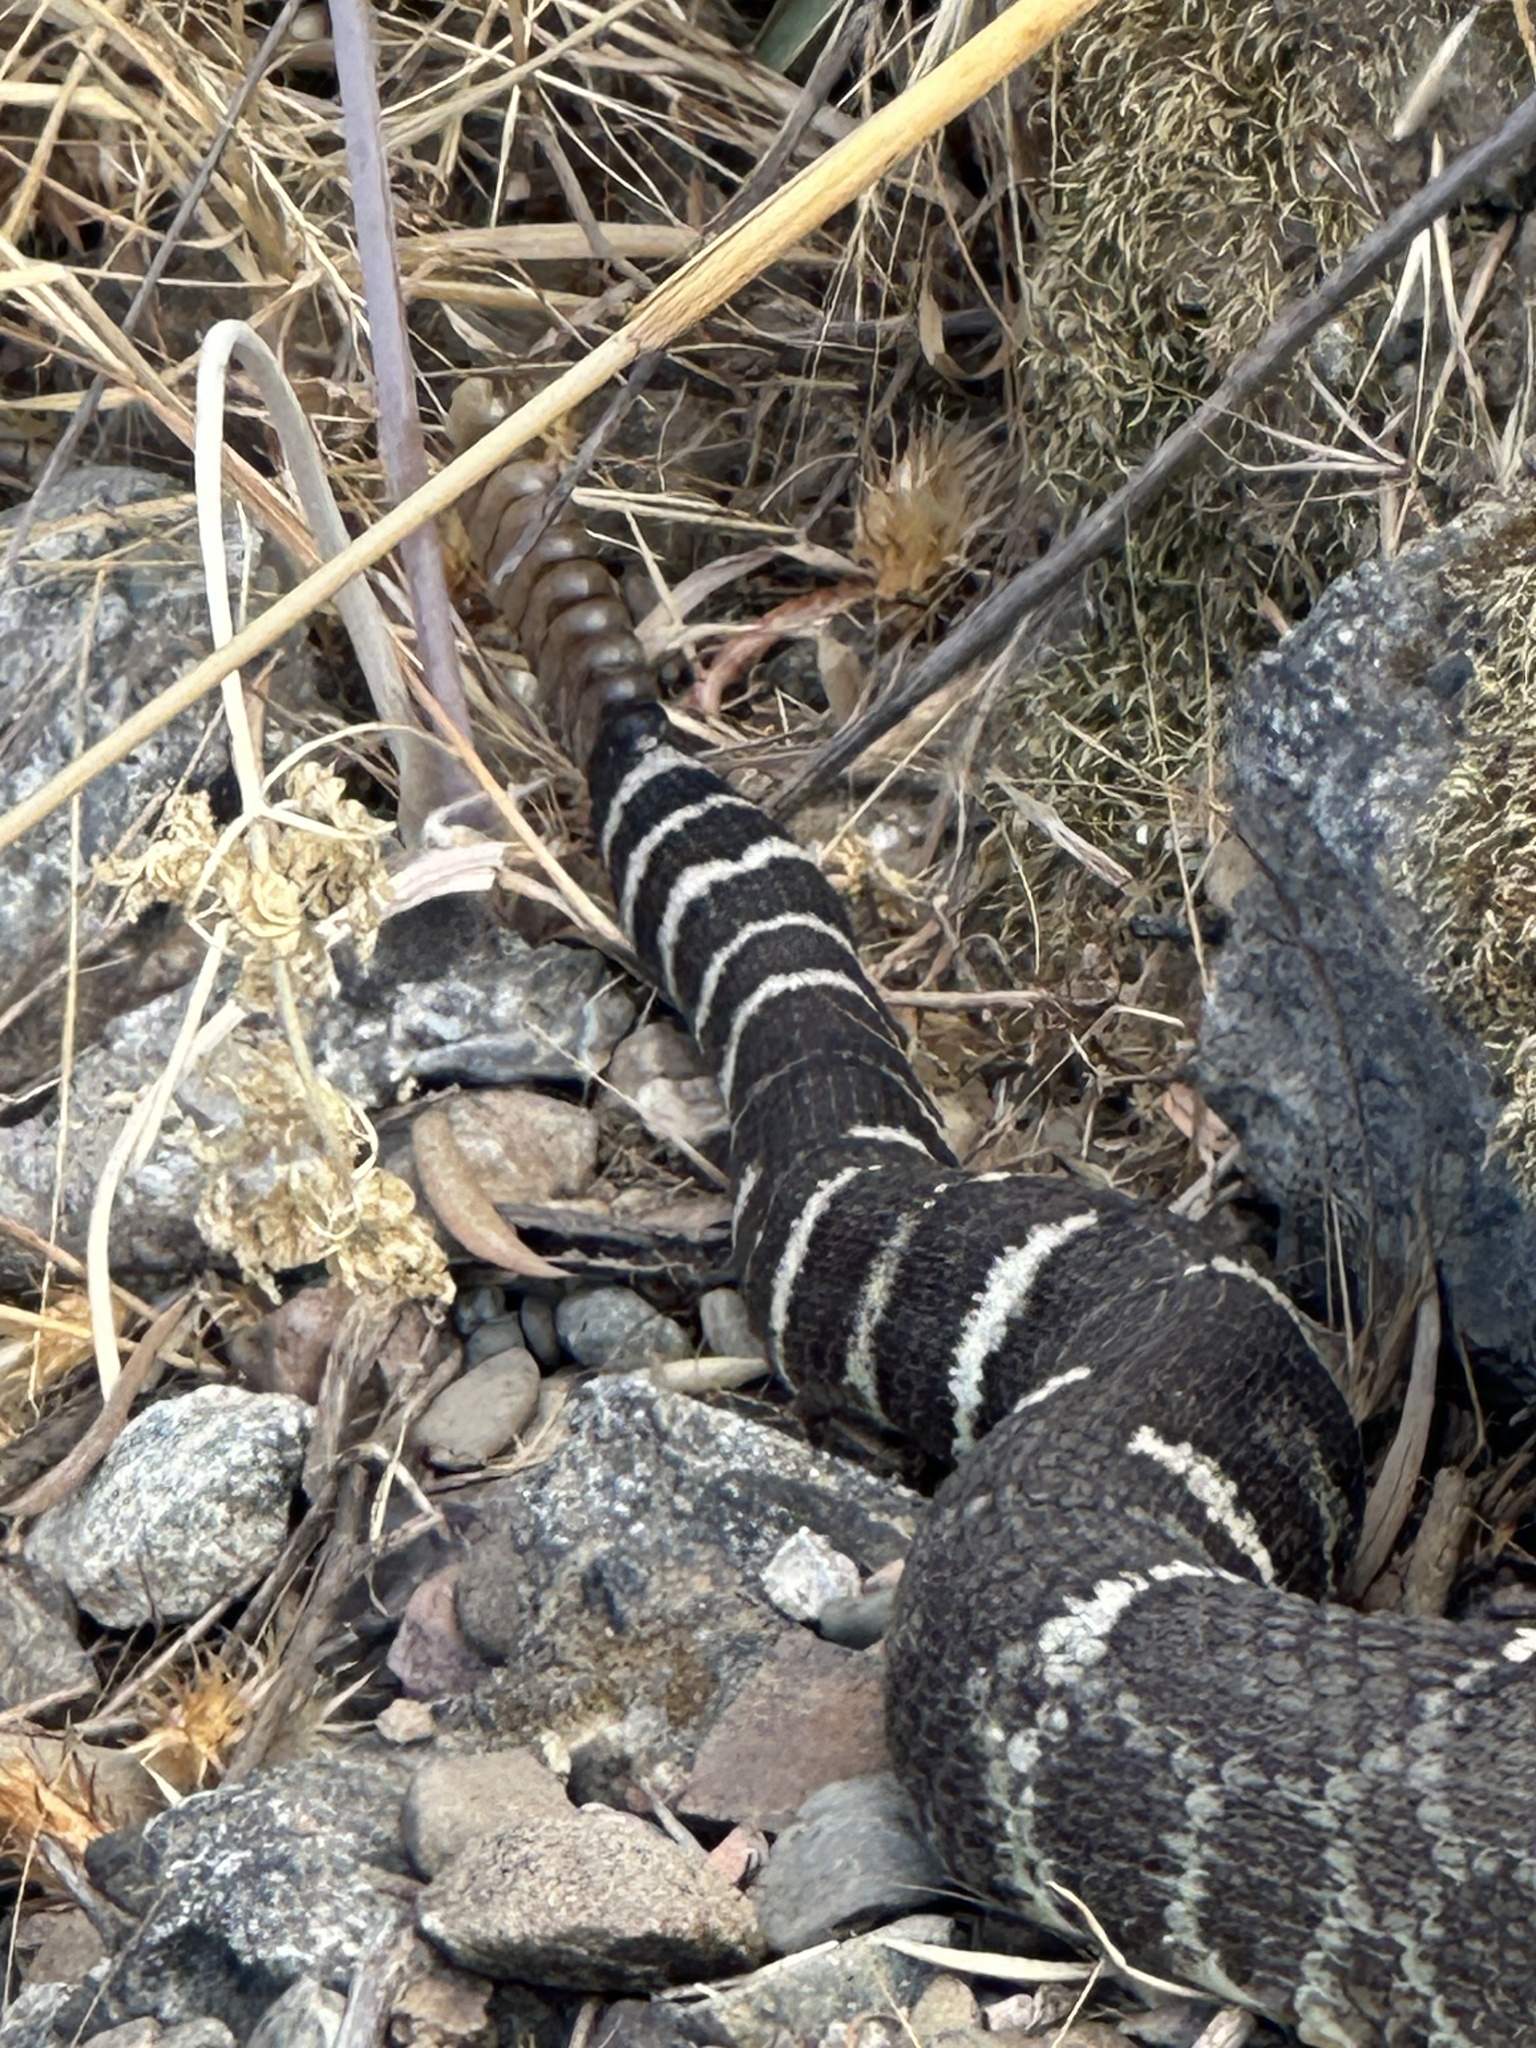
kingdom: Animalia
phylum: Chordata
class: Squamata
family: Viperidae
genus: Crotalus
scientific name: Crotalus oreganus
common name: Abyssus
